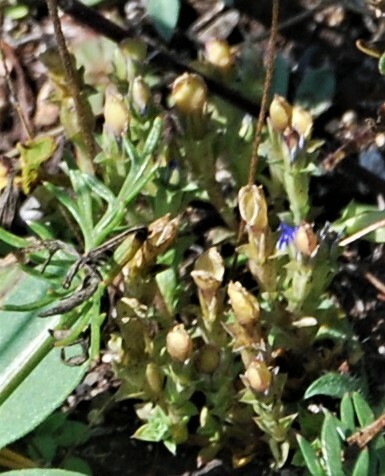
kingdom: Plantae
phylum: Tracheophyta
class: Magnoliopsida
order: Gentianales
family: Gentianaceae
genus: Gentiana
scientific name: Gentiana squarrosa
